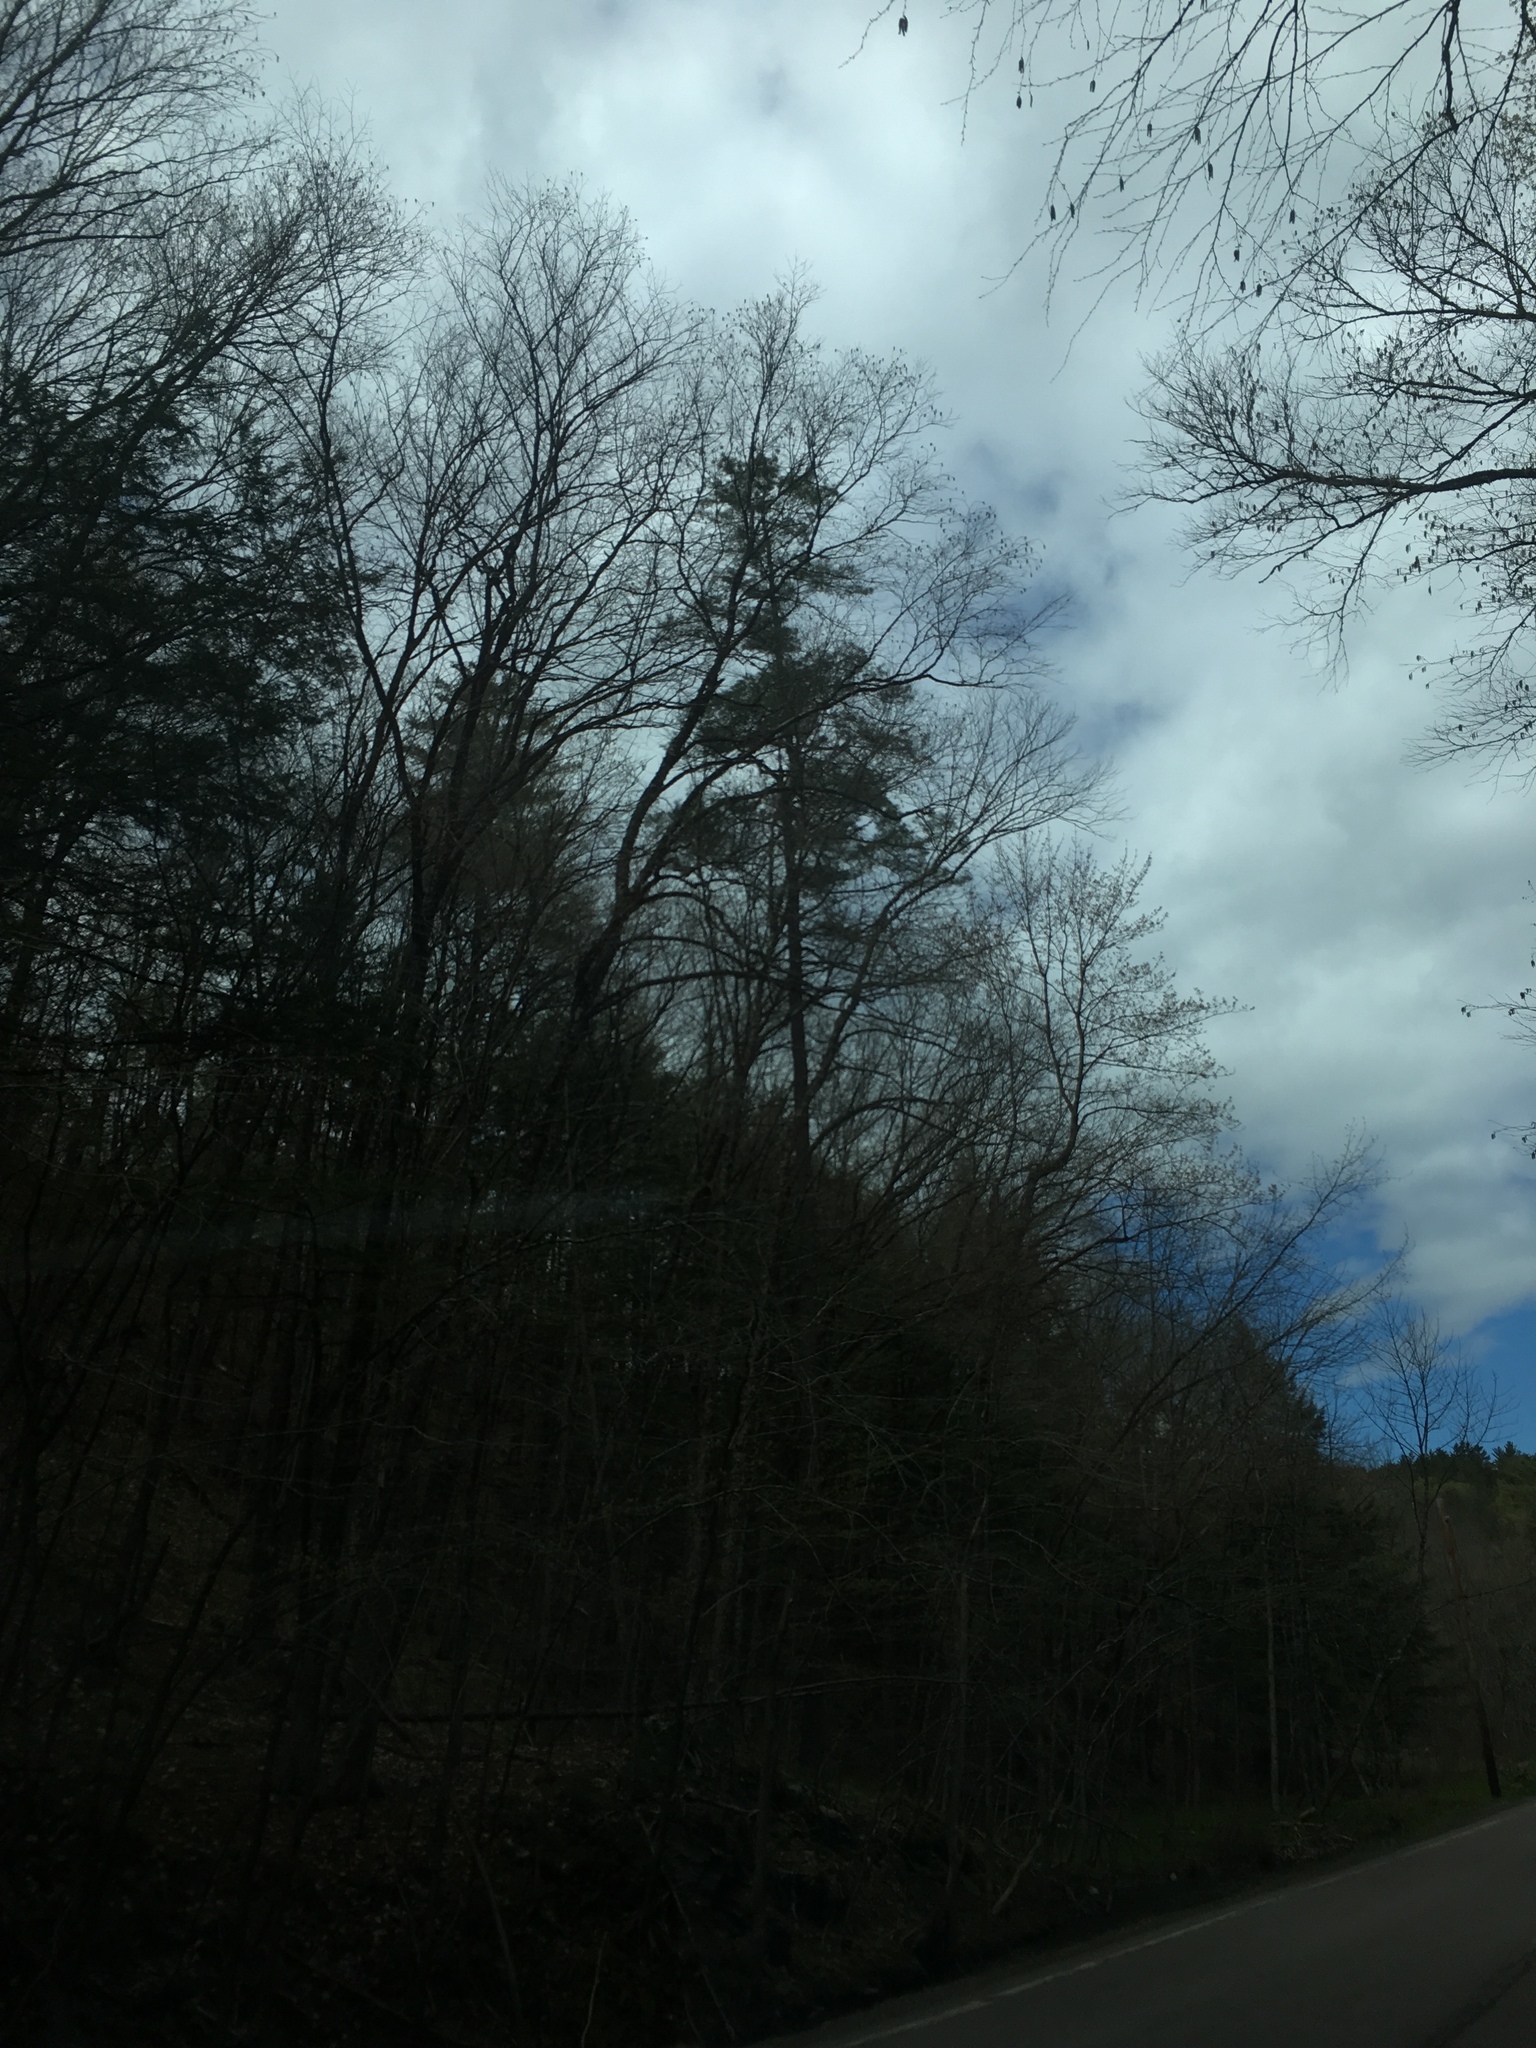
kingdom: Plantae
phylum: Tracheophyta
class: Pinopsida
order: Pinales
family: Pinaceae
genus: Pinus
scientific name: Pinus strobus
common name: Weymouth pine
